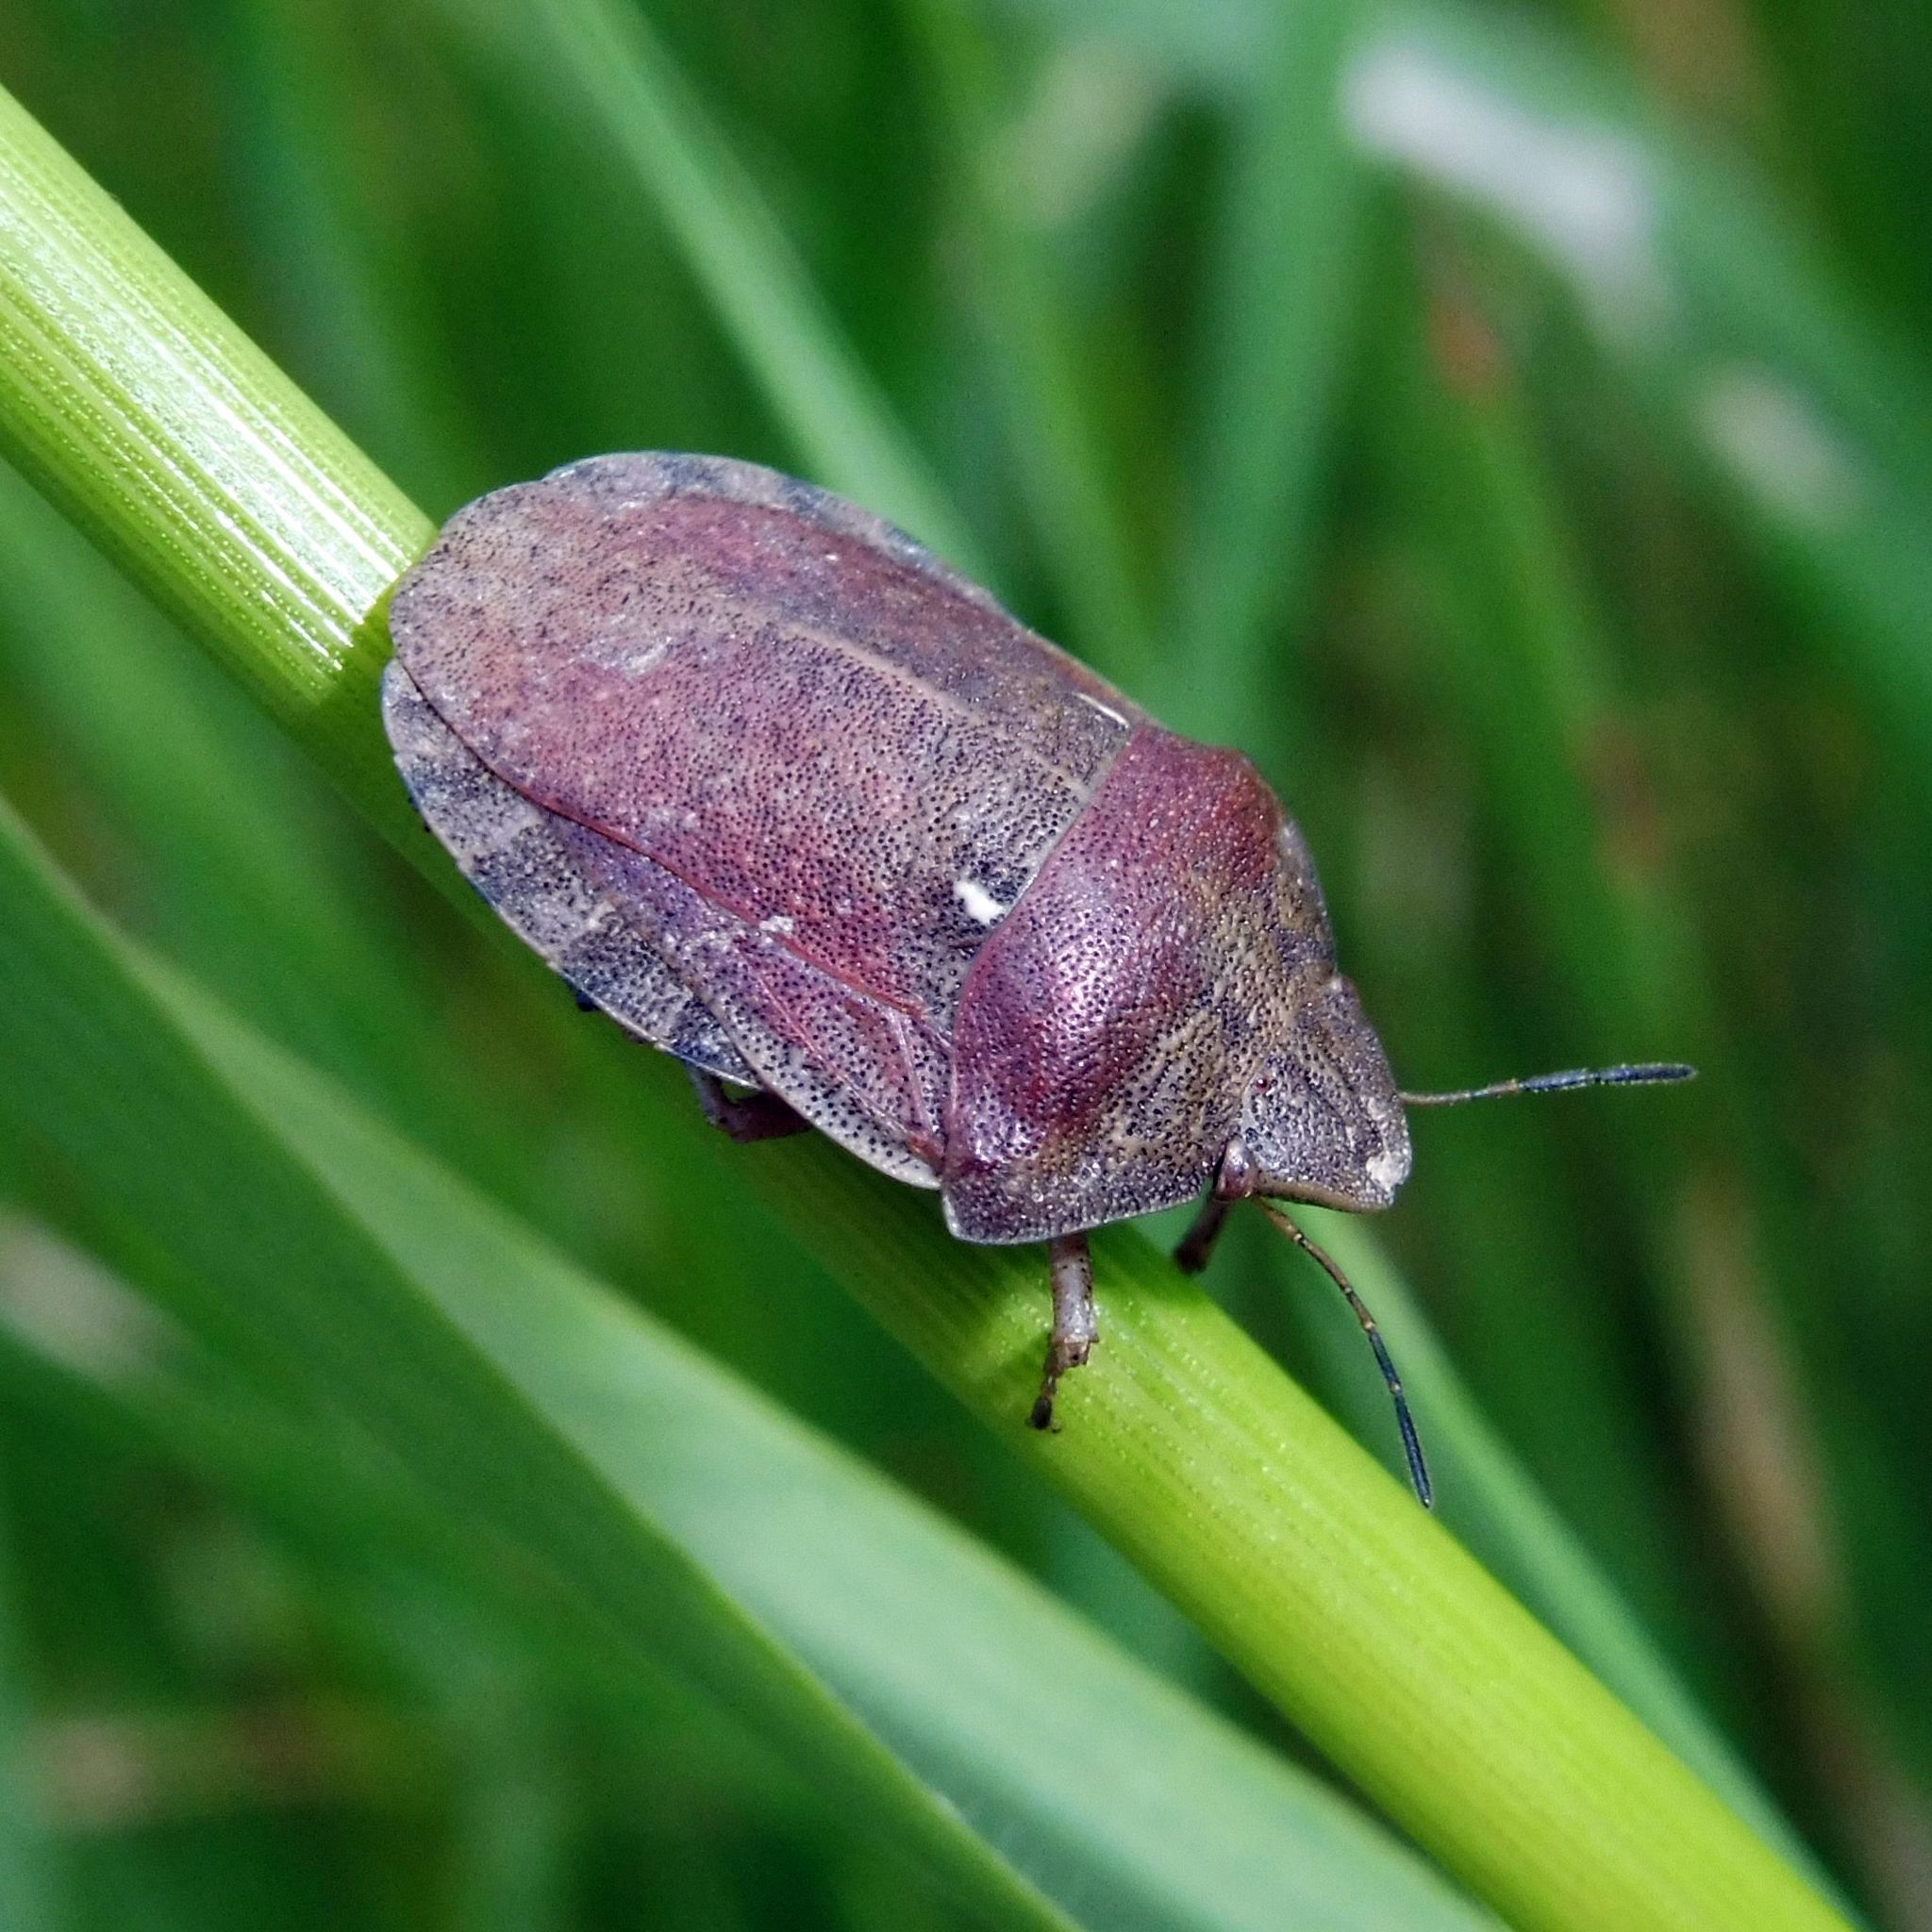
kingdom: Animalia
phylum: Arthropoda
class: Insecta
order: Hemiptera
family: Scutelleridae
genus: Eurygaster
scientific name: Eurygaster testudinaria
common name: Tortoise bug
